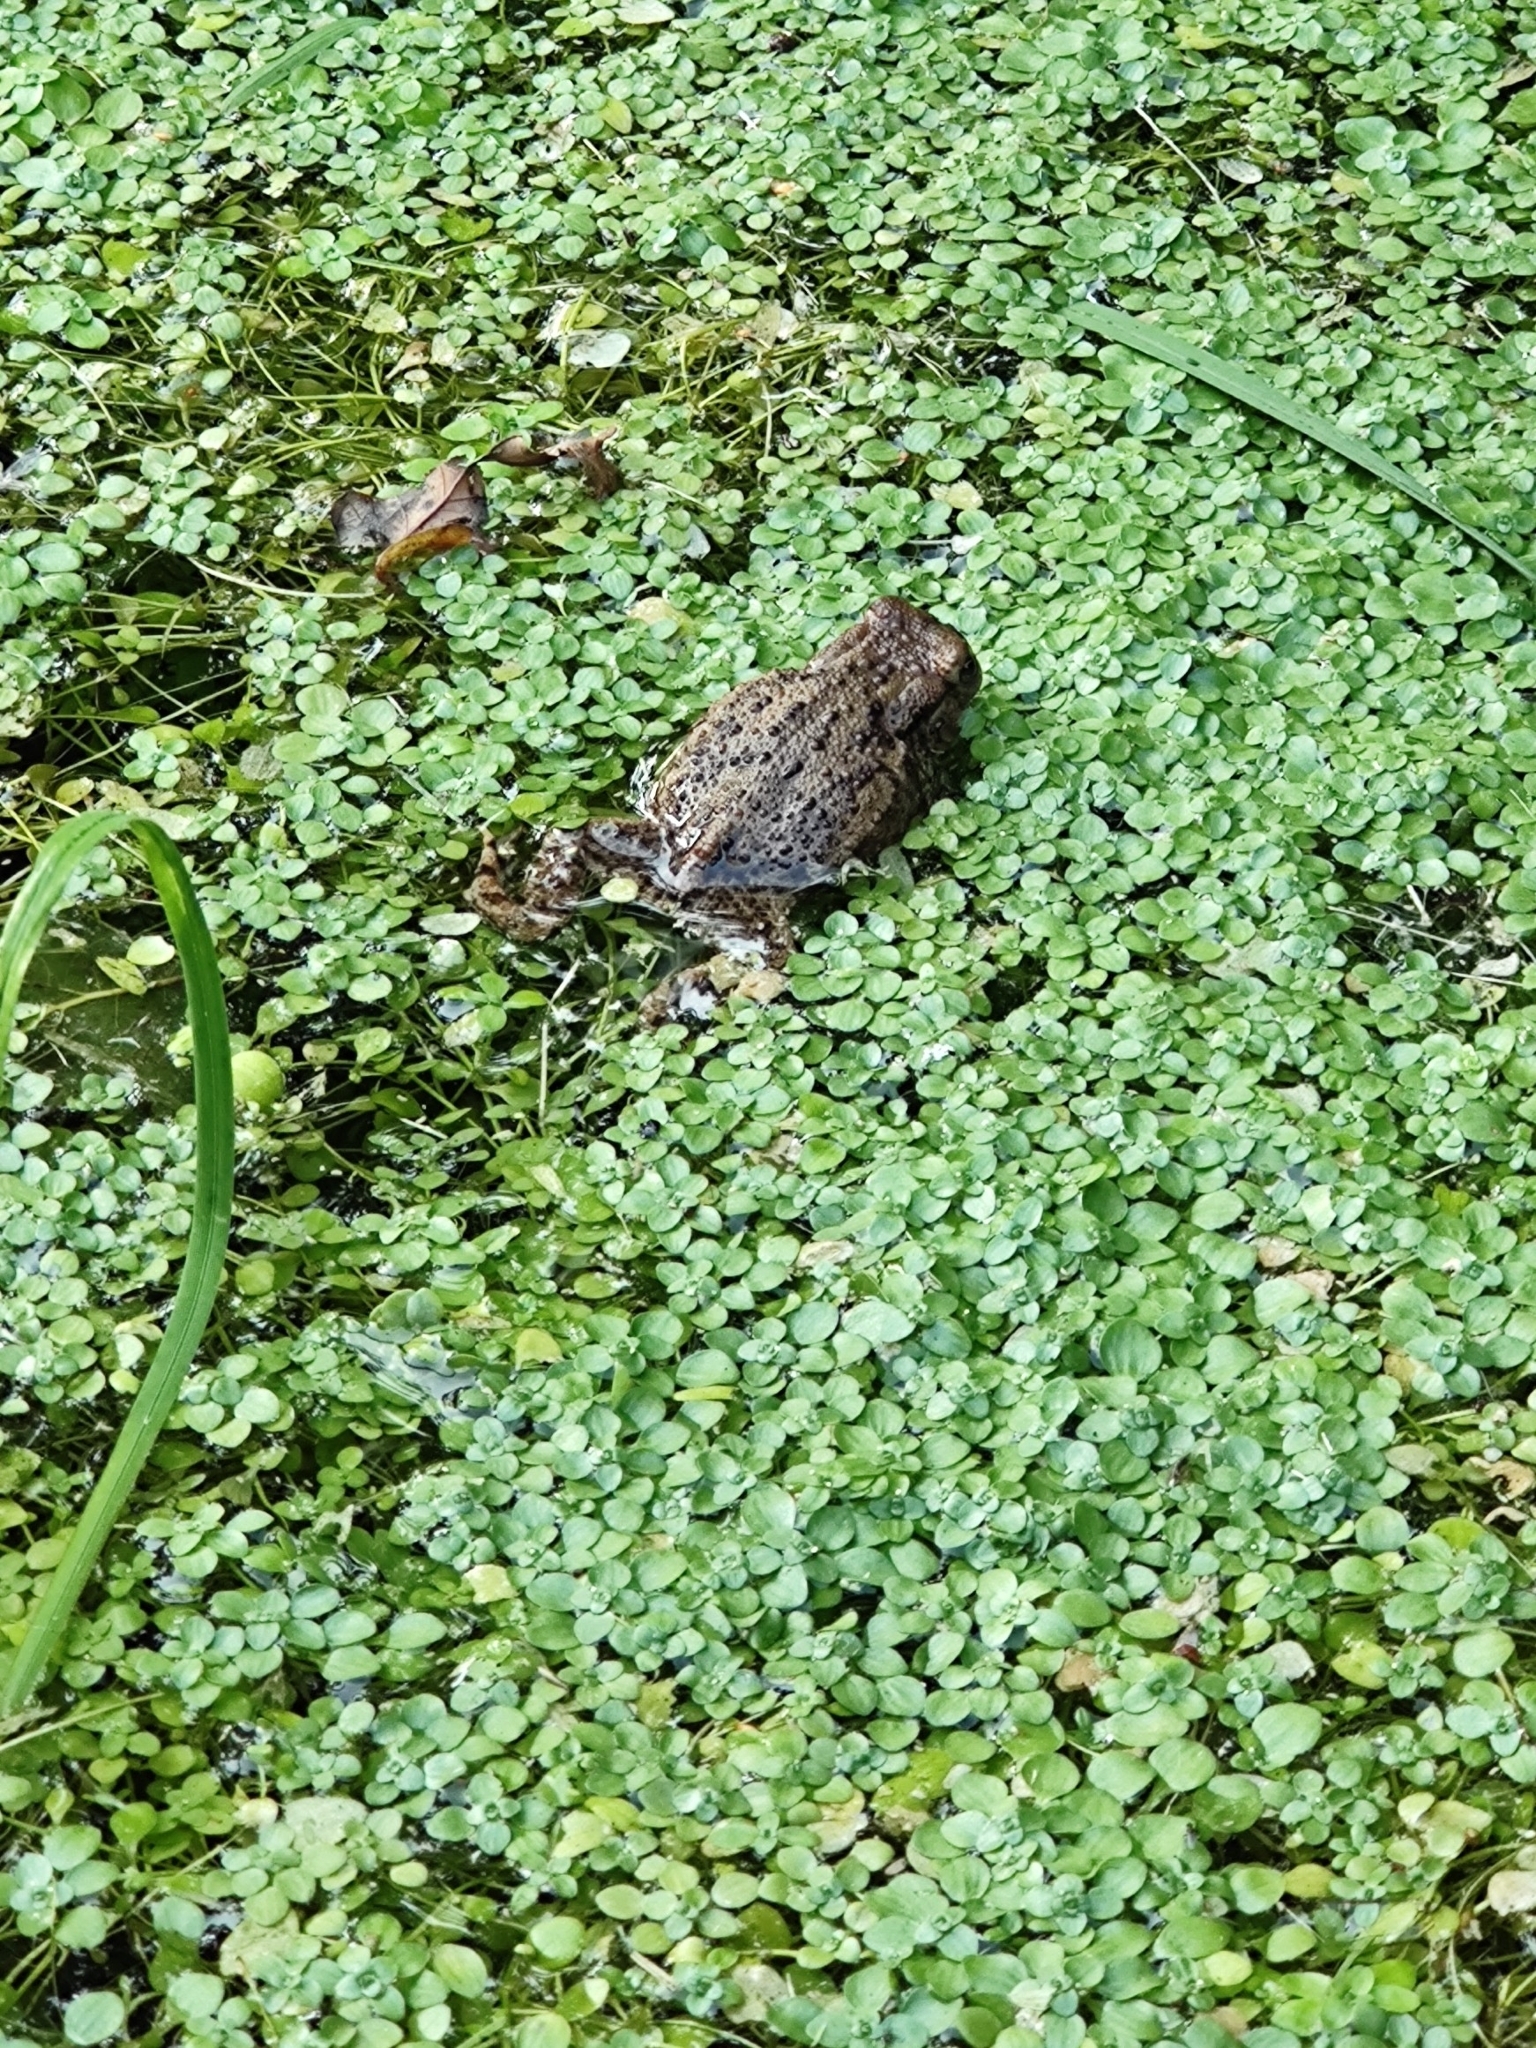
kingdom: Animalia
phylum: Chordata
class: Amphibia
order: Anura
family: Bufonidae
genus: Bufo
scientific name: Bufo bufo
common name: Common toad
